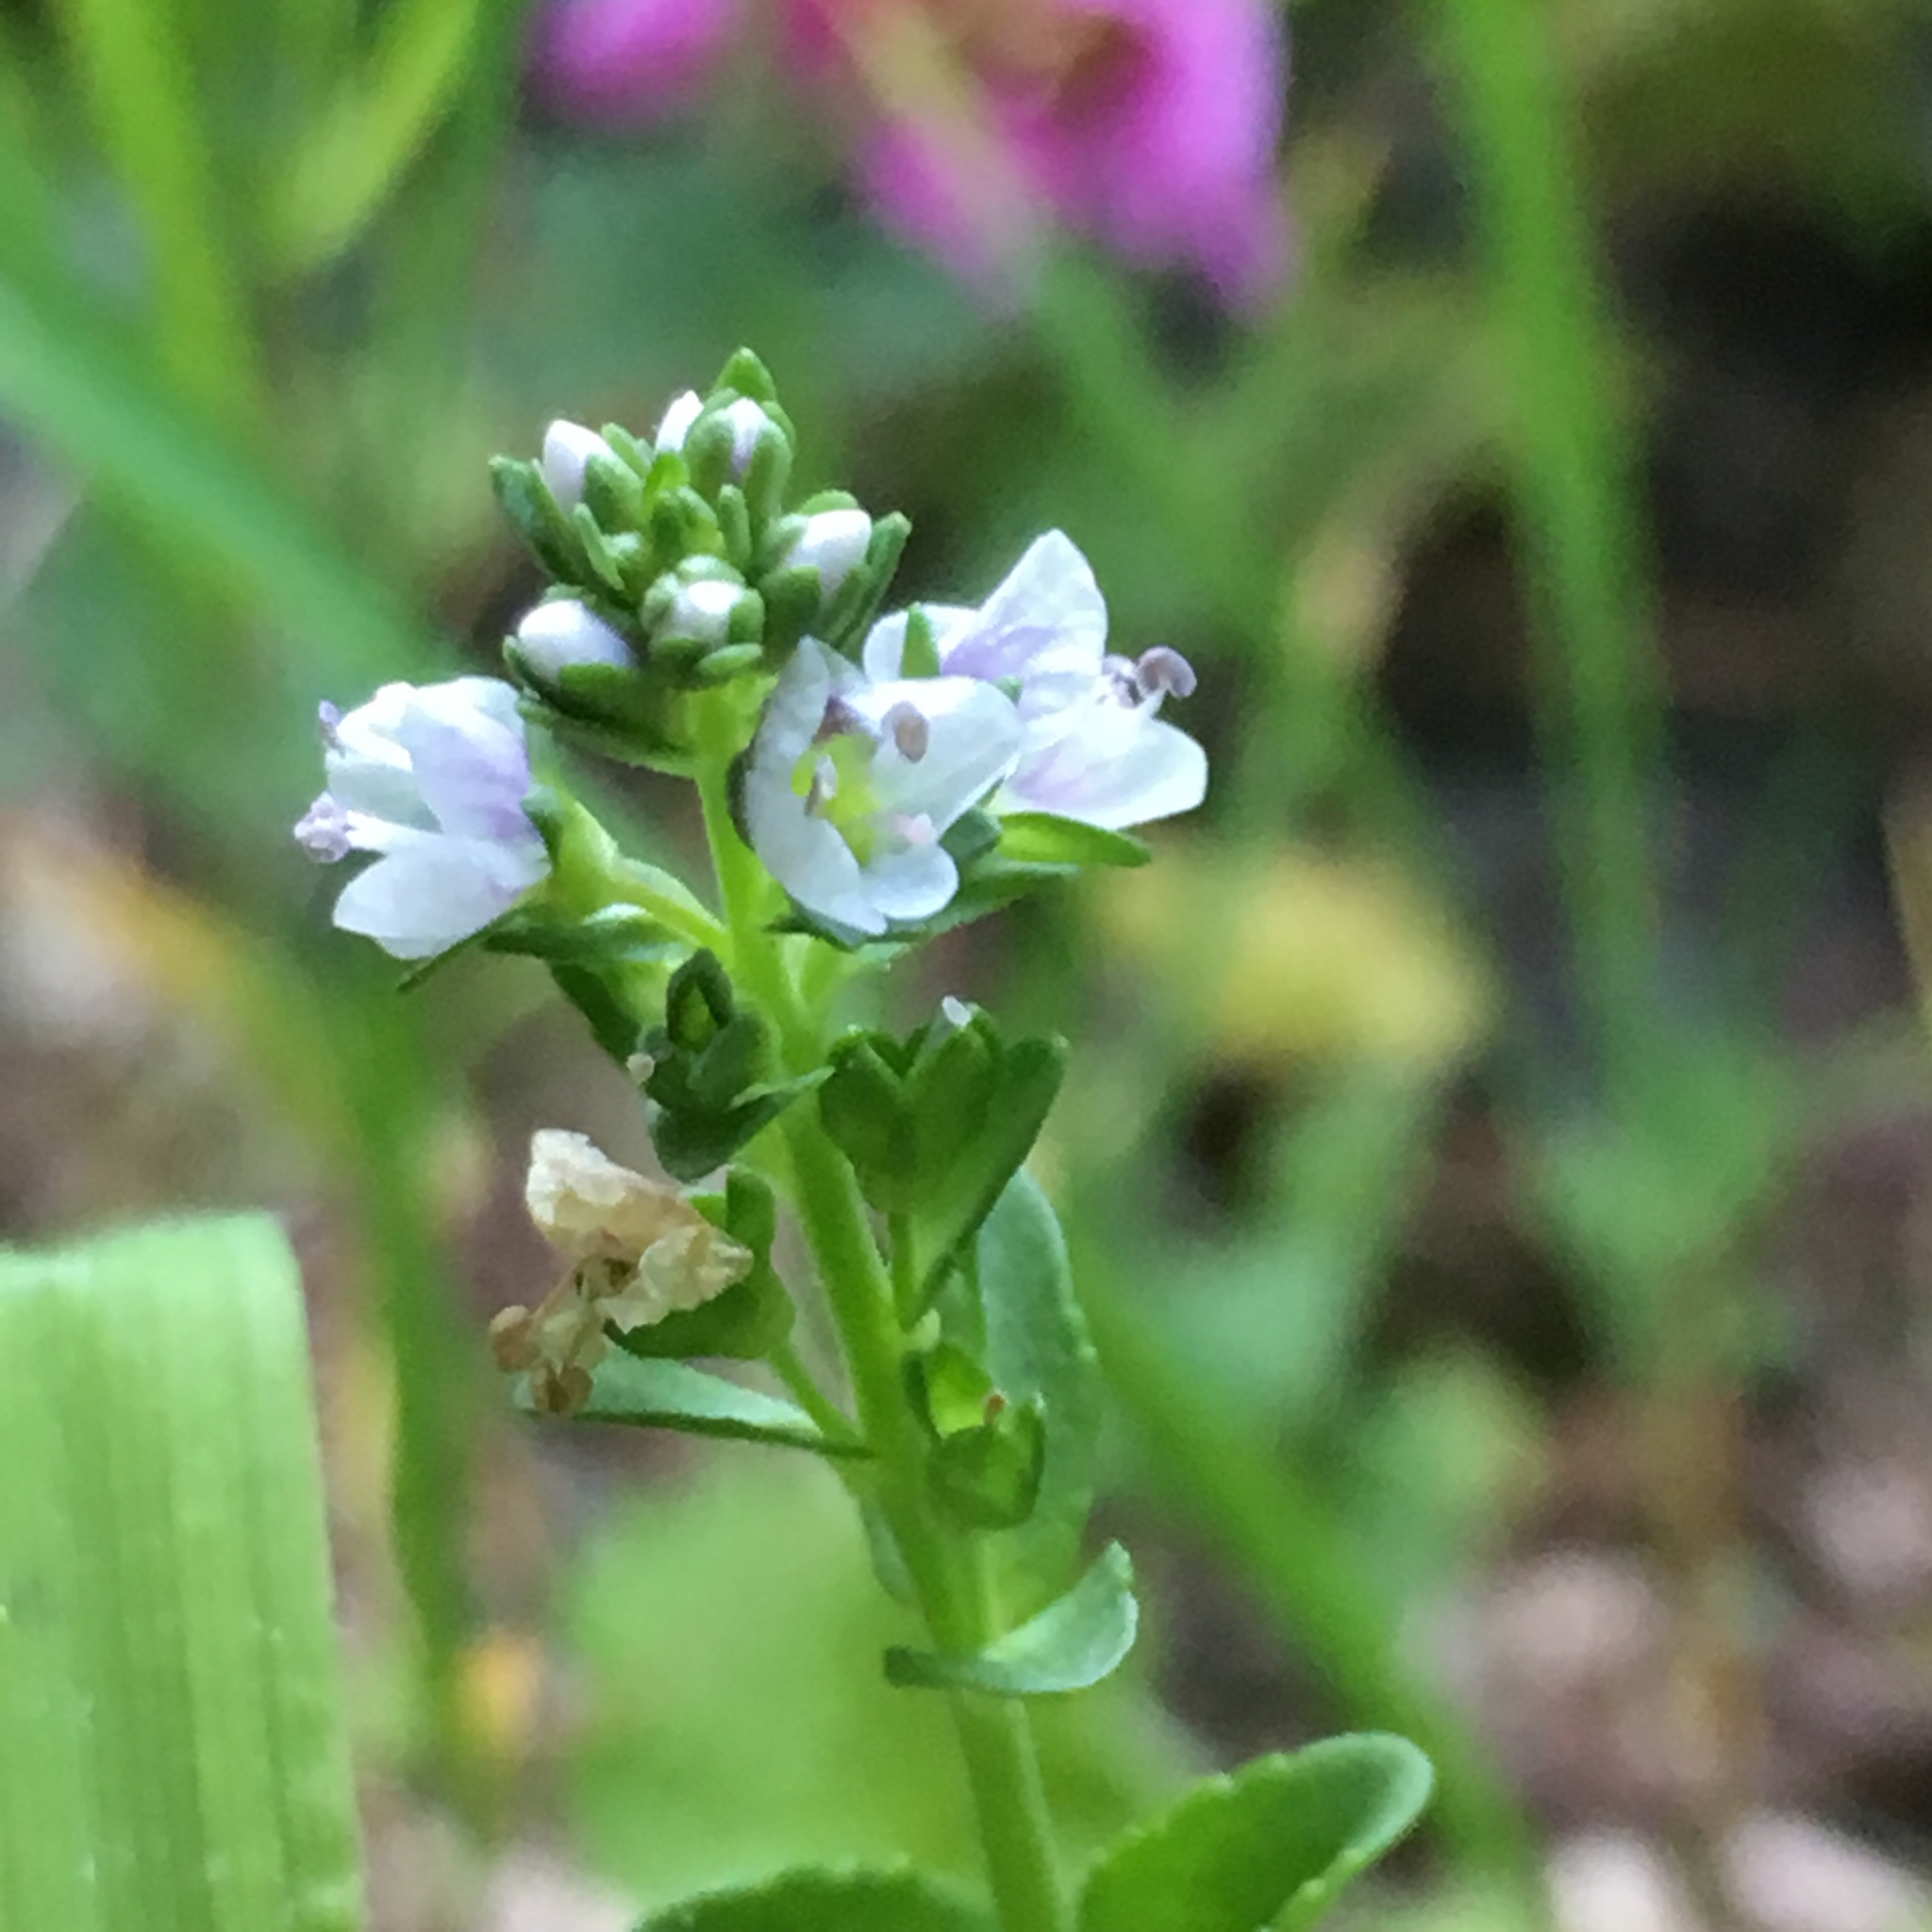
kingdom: Plantae
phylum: Tracheophyta
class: Magnoliopsida
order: Lamiales
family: Plantaginaceae
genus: Veronica
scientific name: Veronica serpyllifolia
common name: Thyme-leaved speedwell
